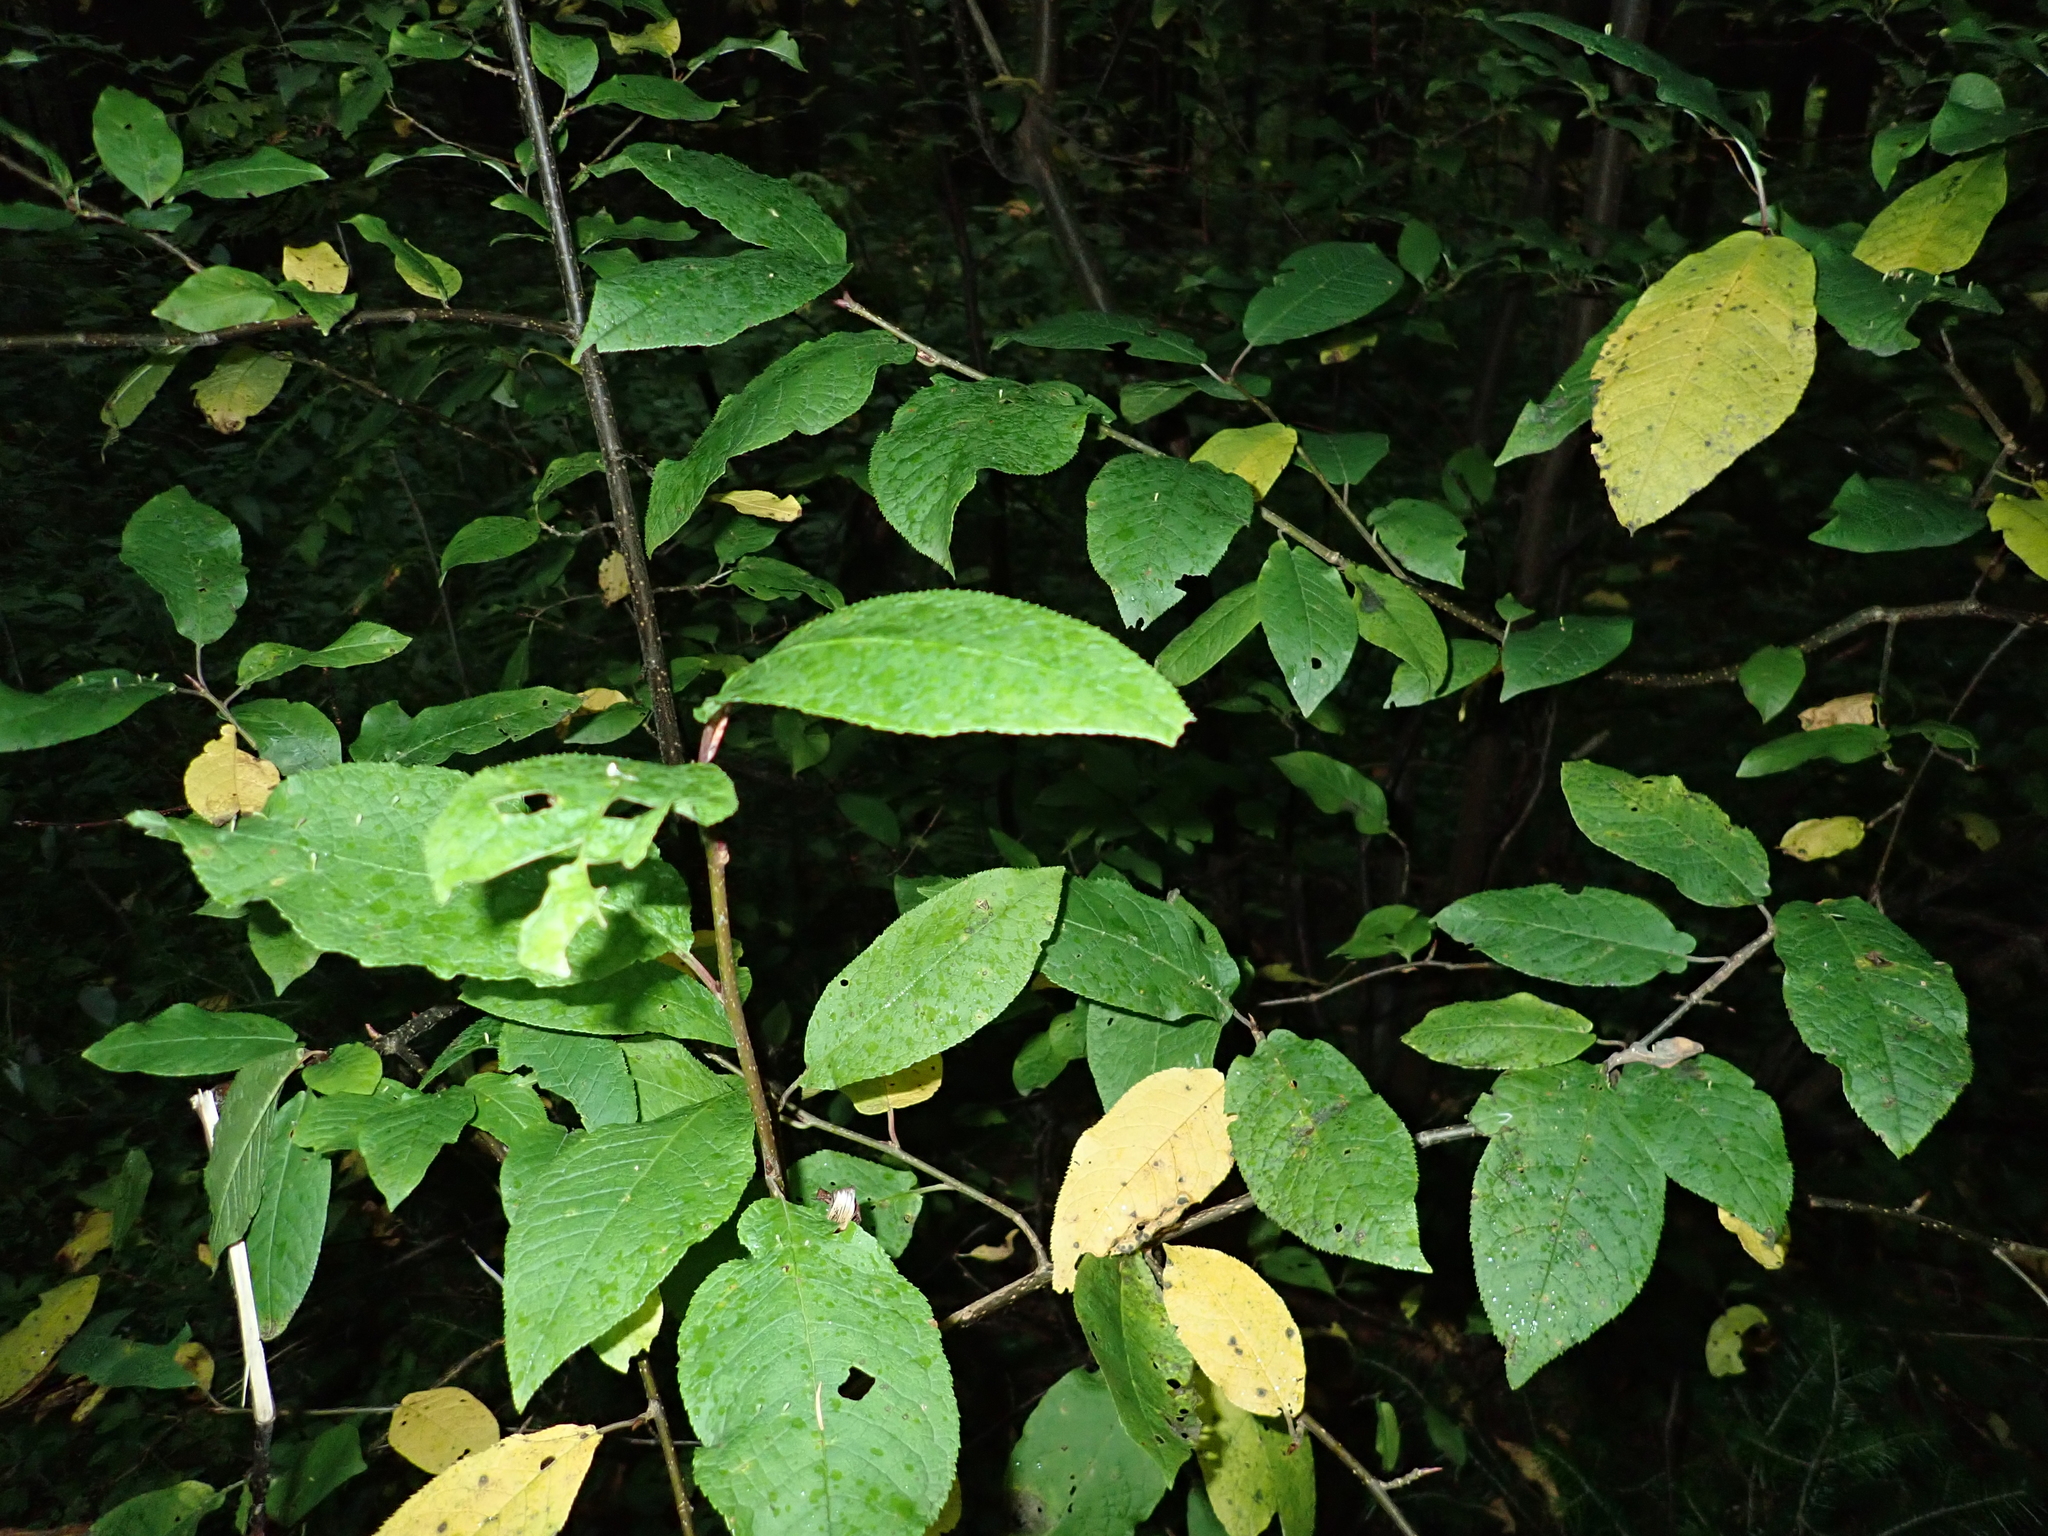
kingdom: Plantae
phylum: Tracheophyta
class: Magnoliopsida
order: Rosales
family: Rosaceae
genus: Prunus
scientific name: Prunus padus
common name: Bird cherry
